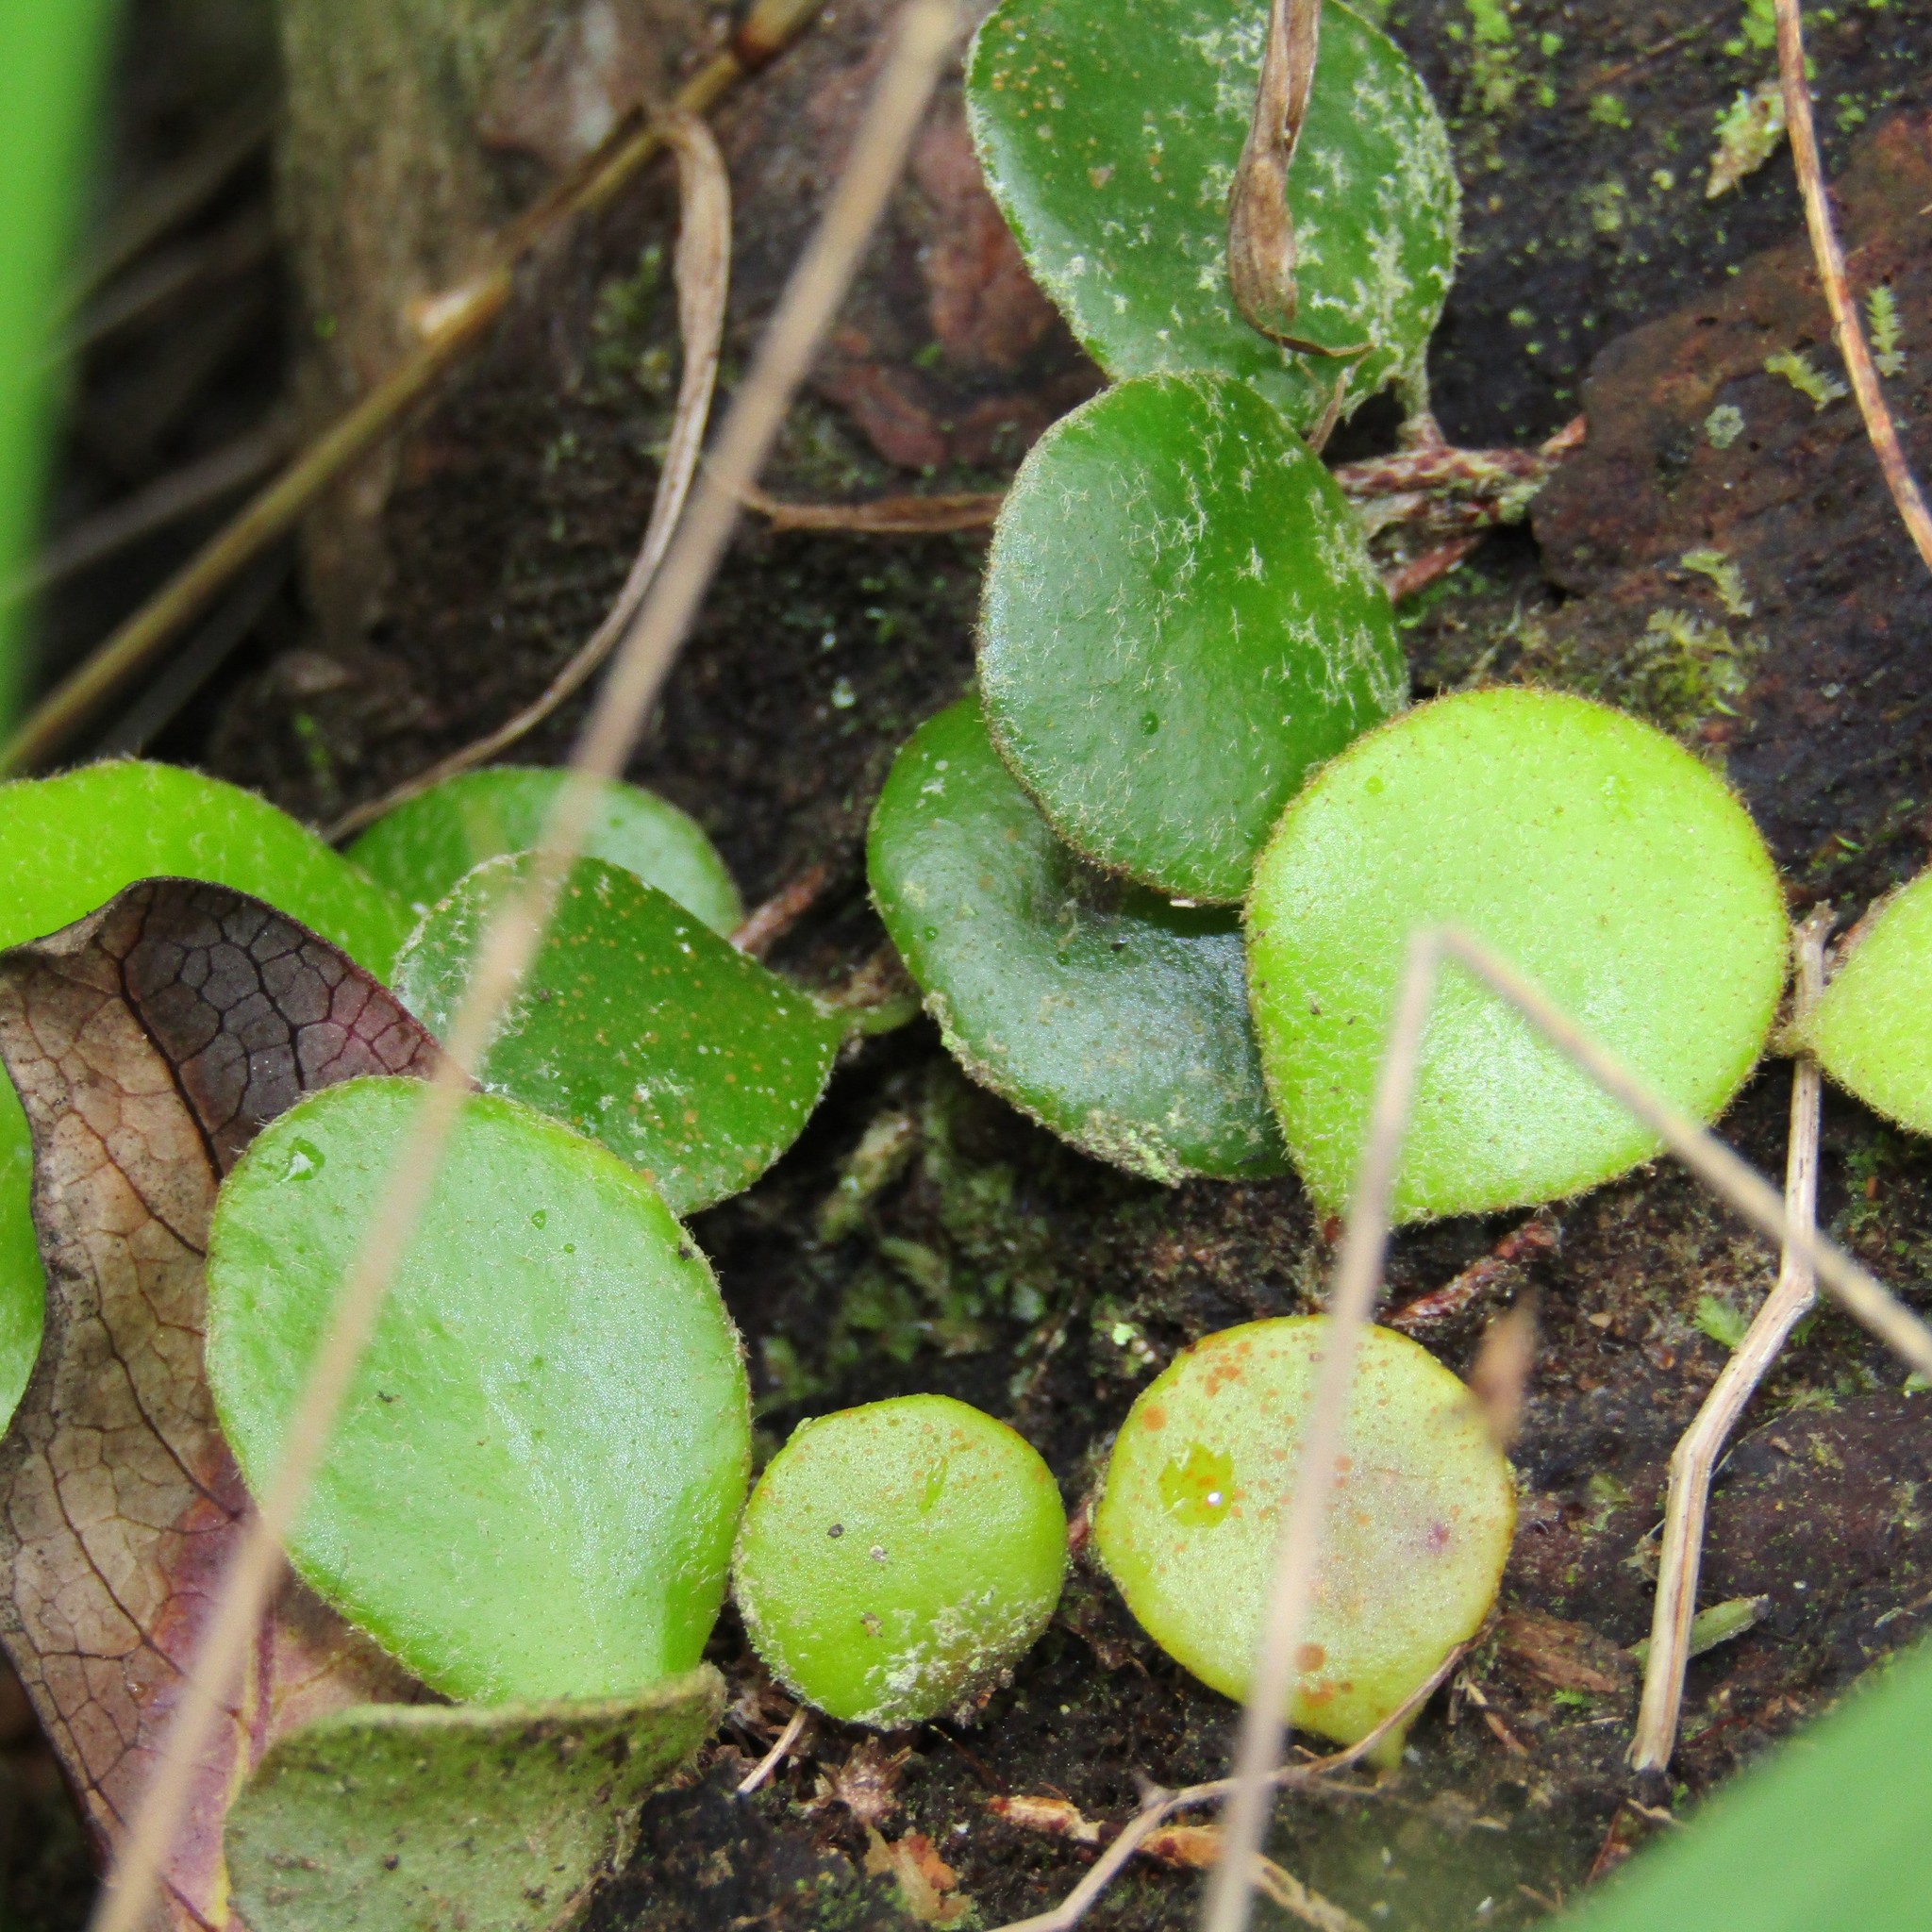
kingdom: Plantae
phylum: Tracheophyta
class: Polypodiopsida
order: Polypodiales
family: Polypodiaceae
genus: Pyrrosia
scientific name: Pyrrosia eleagnifolia
